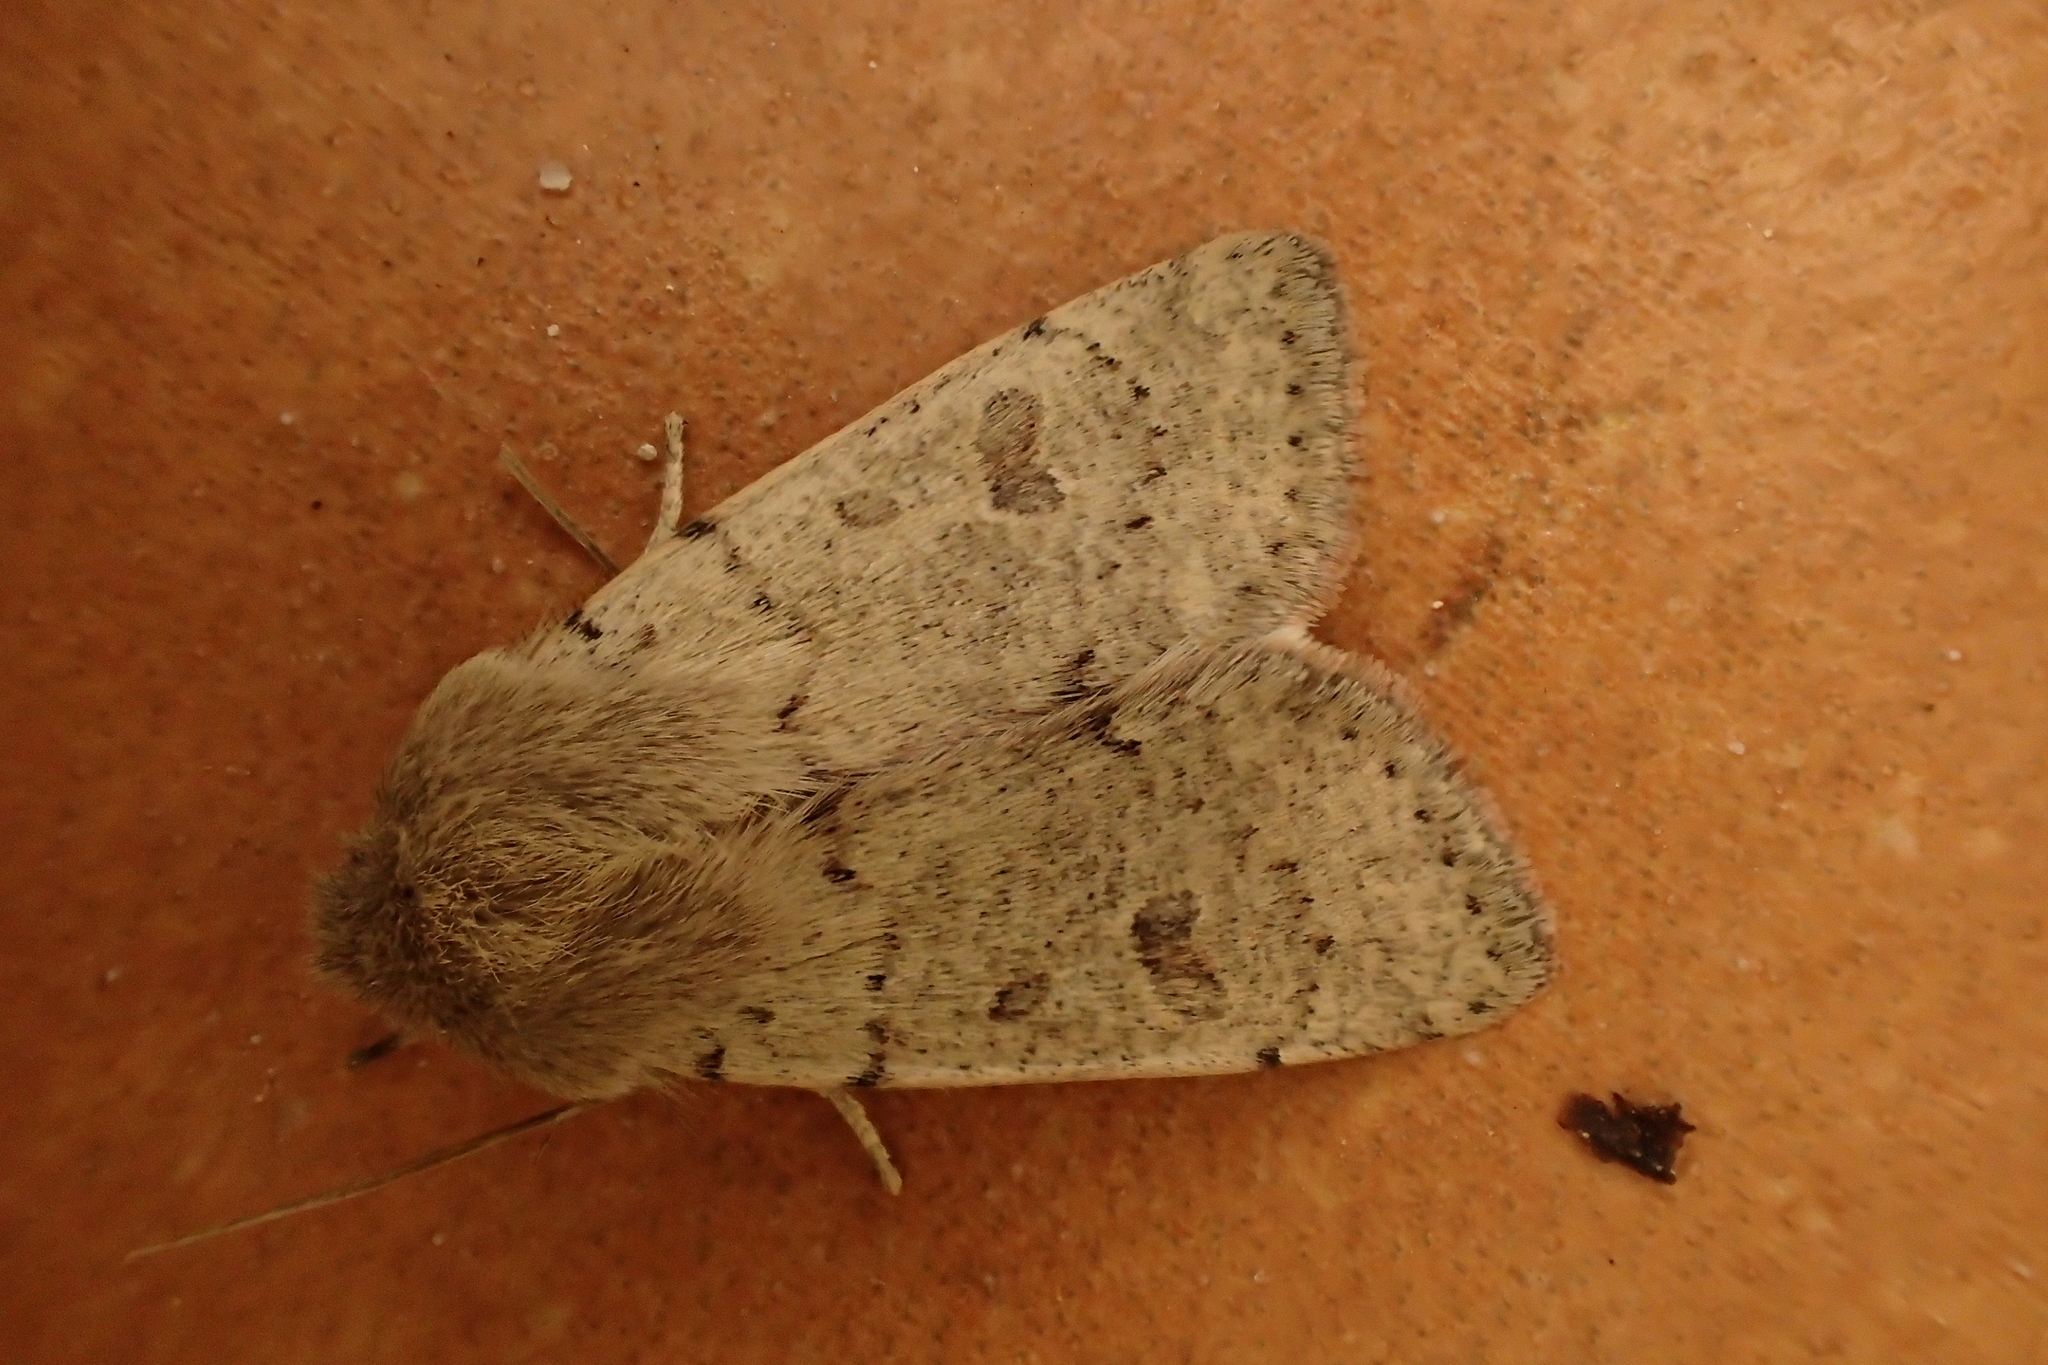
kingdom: Animalia
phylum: Arthropoda
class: Insecta
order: Lepidoptera
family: Noctuidae
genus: Orthosia
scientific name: Orthosia cruda
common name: Small quaker
